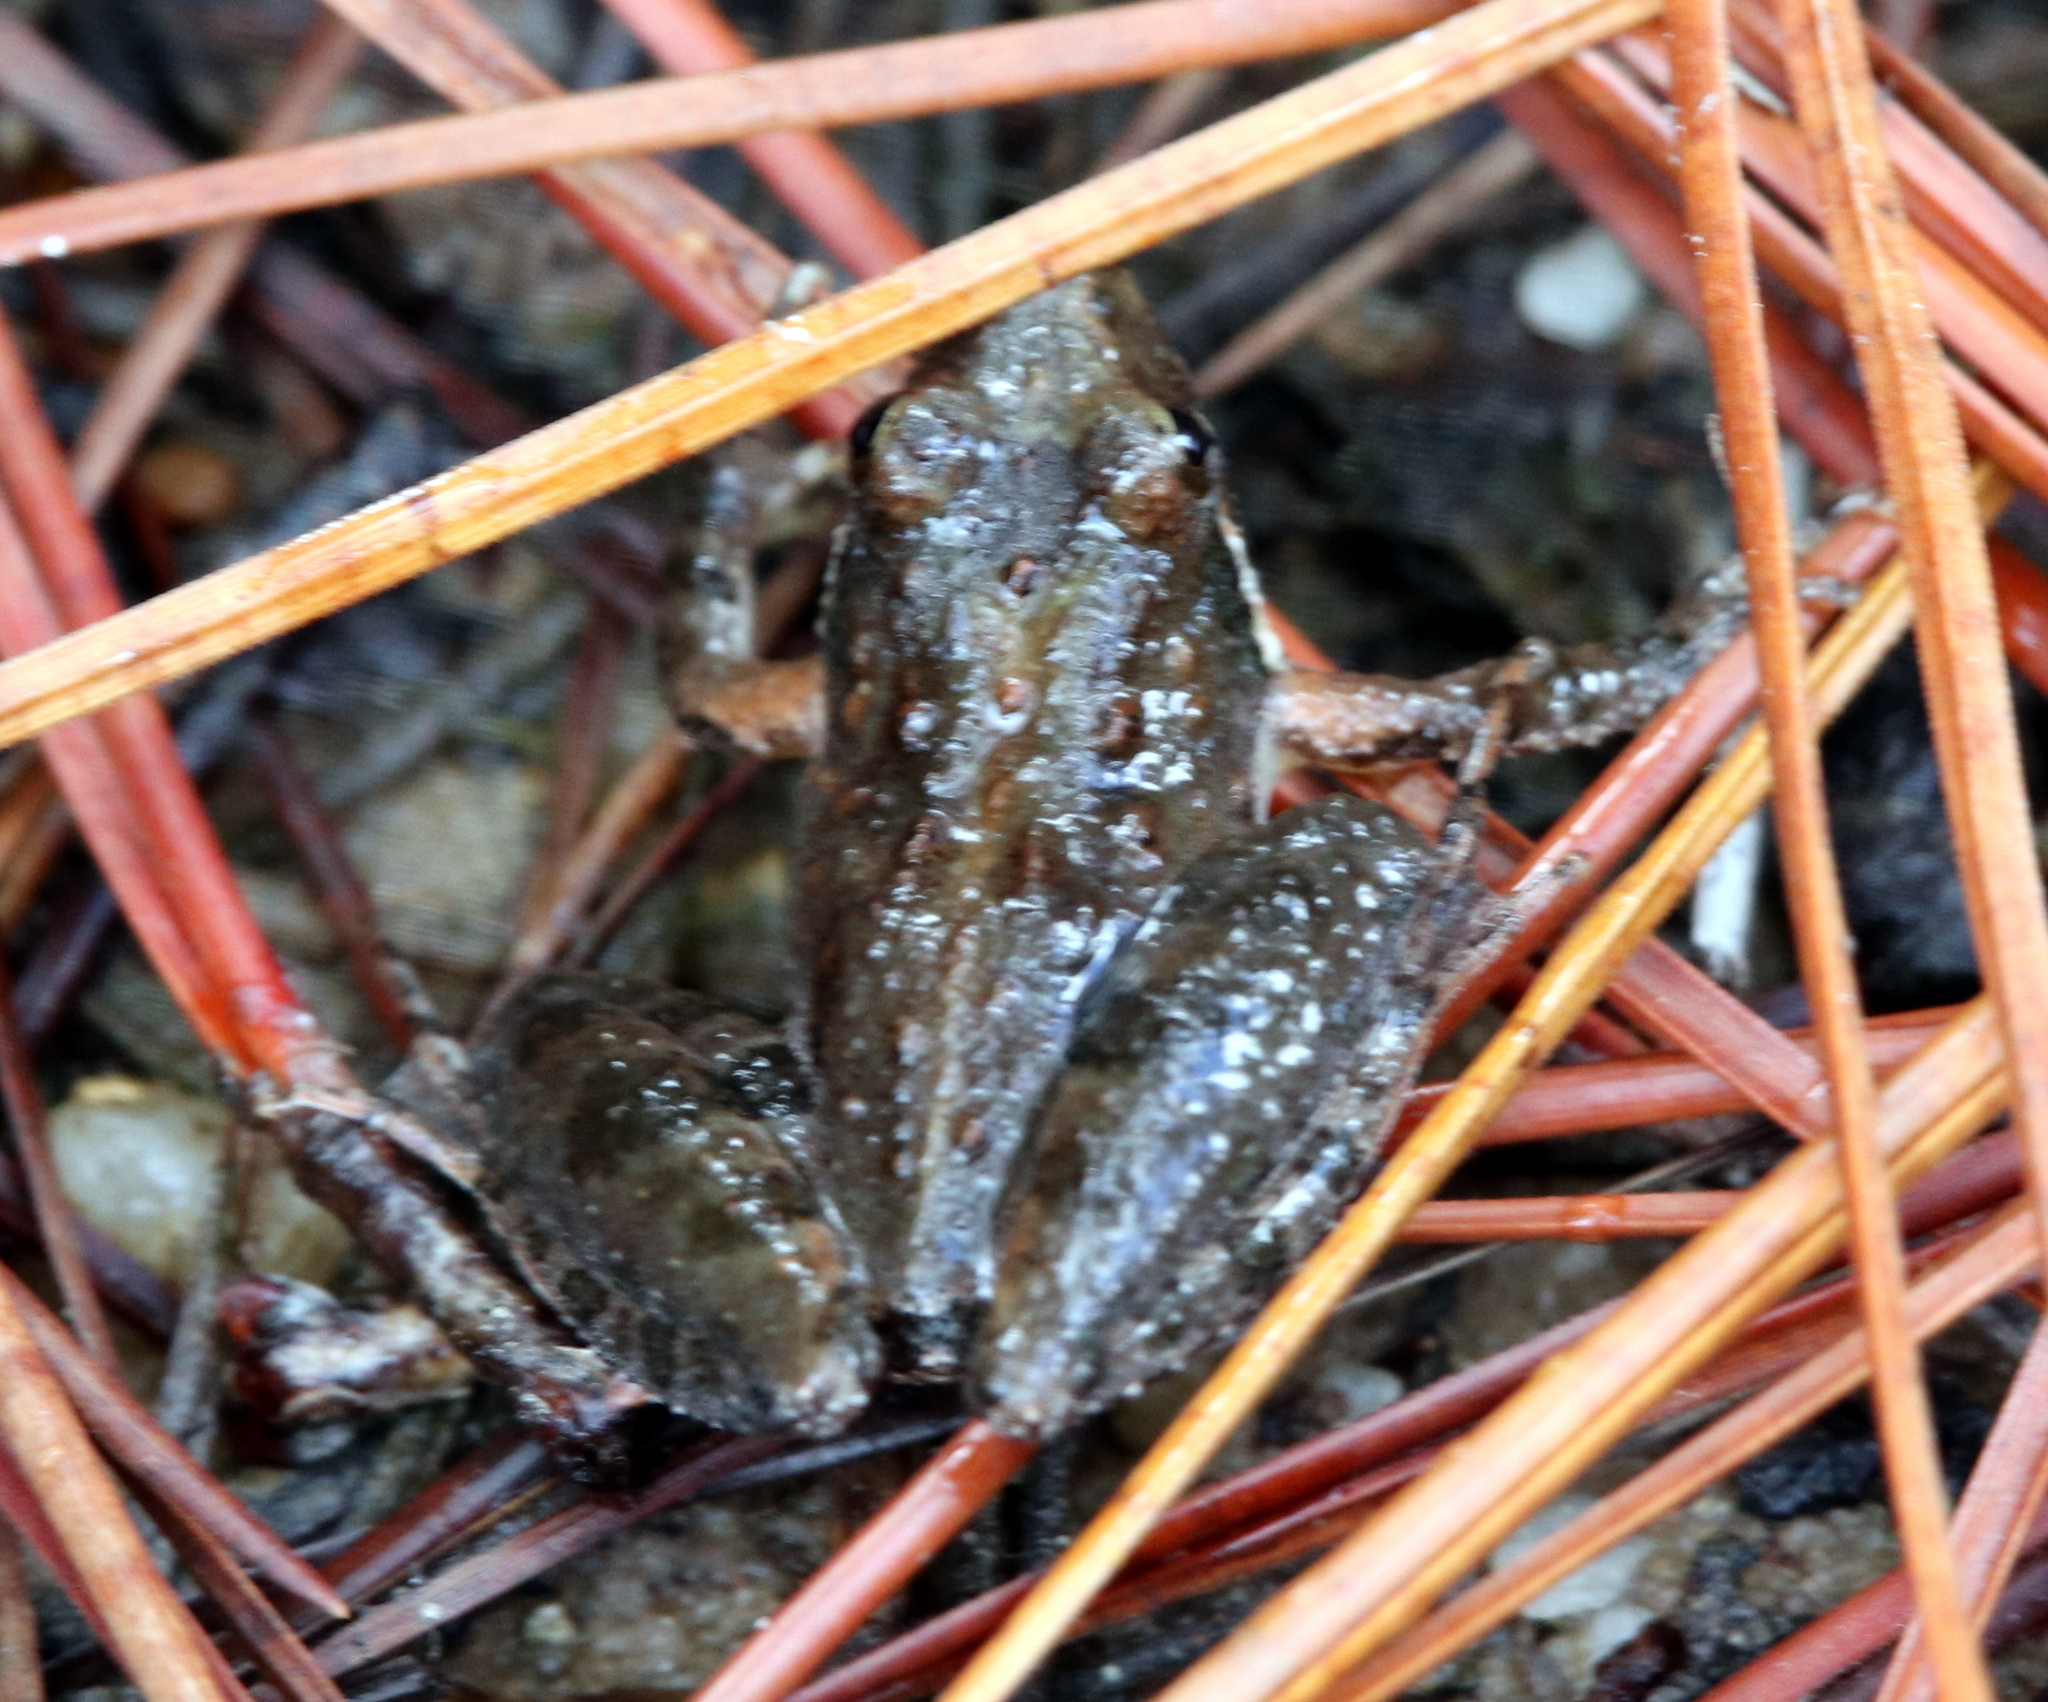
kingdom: Animalia
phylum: Chordata
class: Amphibia
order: Anura
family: Hylidae
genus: Acris
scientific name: Acris gryllus
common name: Southern cricket frog
